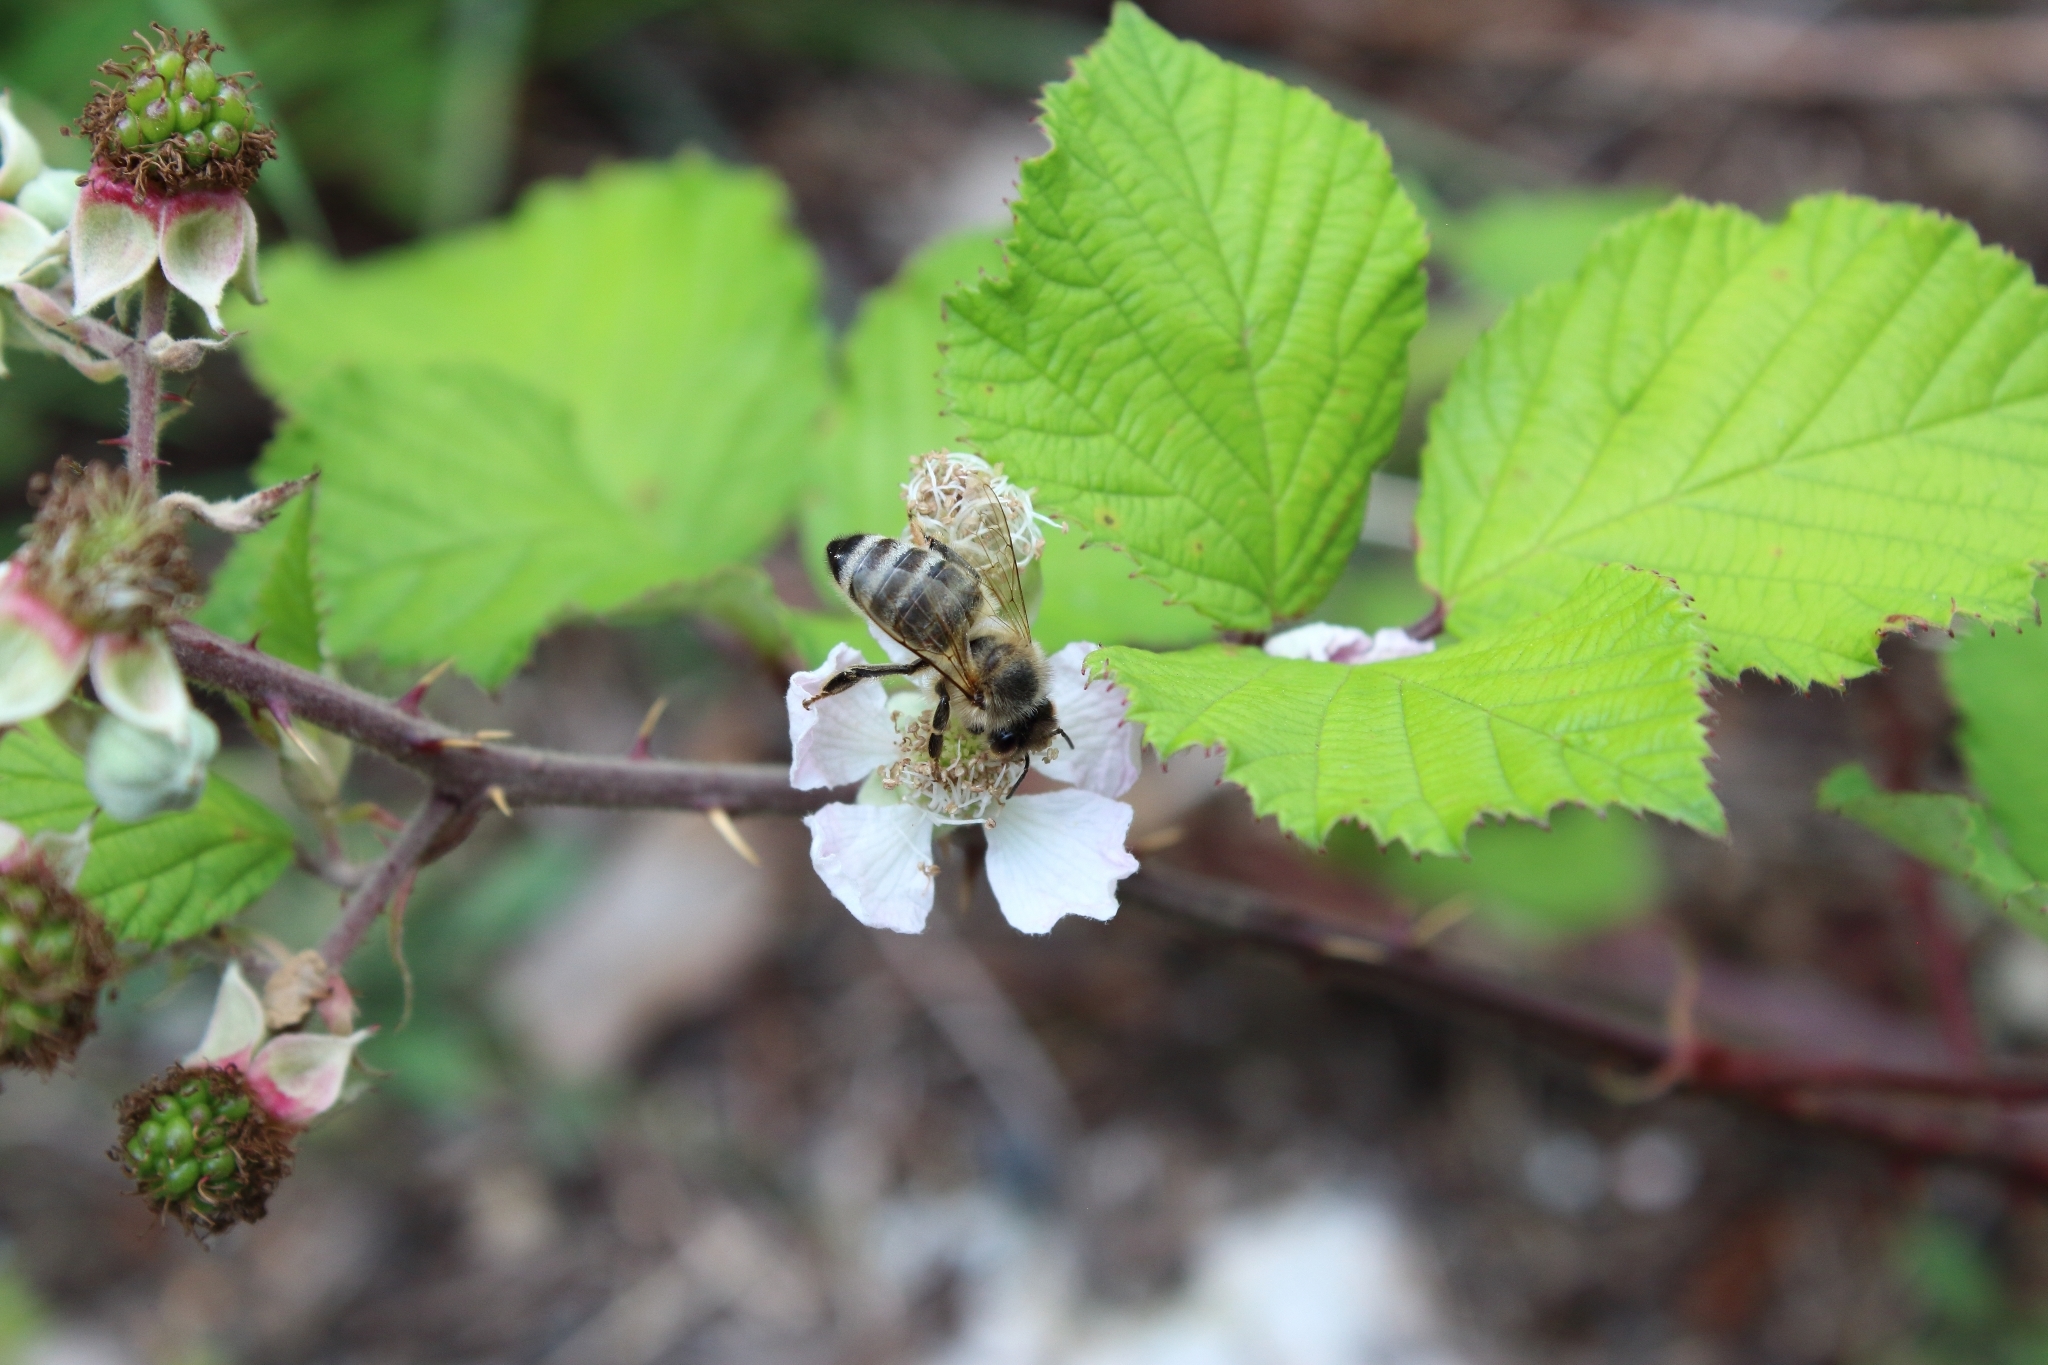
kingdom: Animalia
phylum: Arthropoda
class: Insecta
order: Hymenoptera
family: Apidae
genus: Apis
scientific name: Apis mellifera
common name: Honey bee
